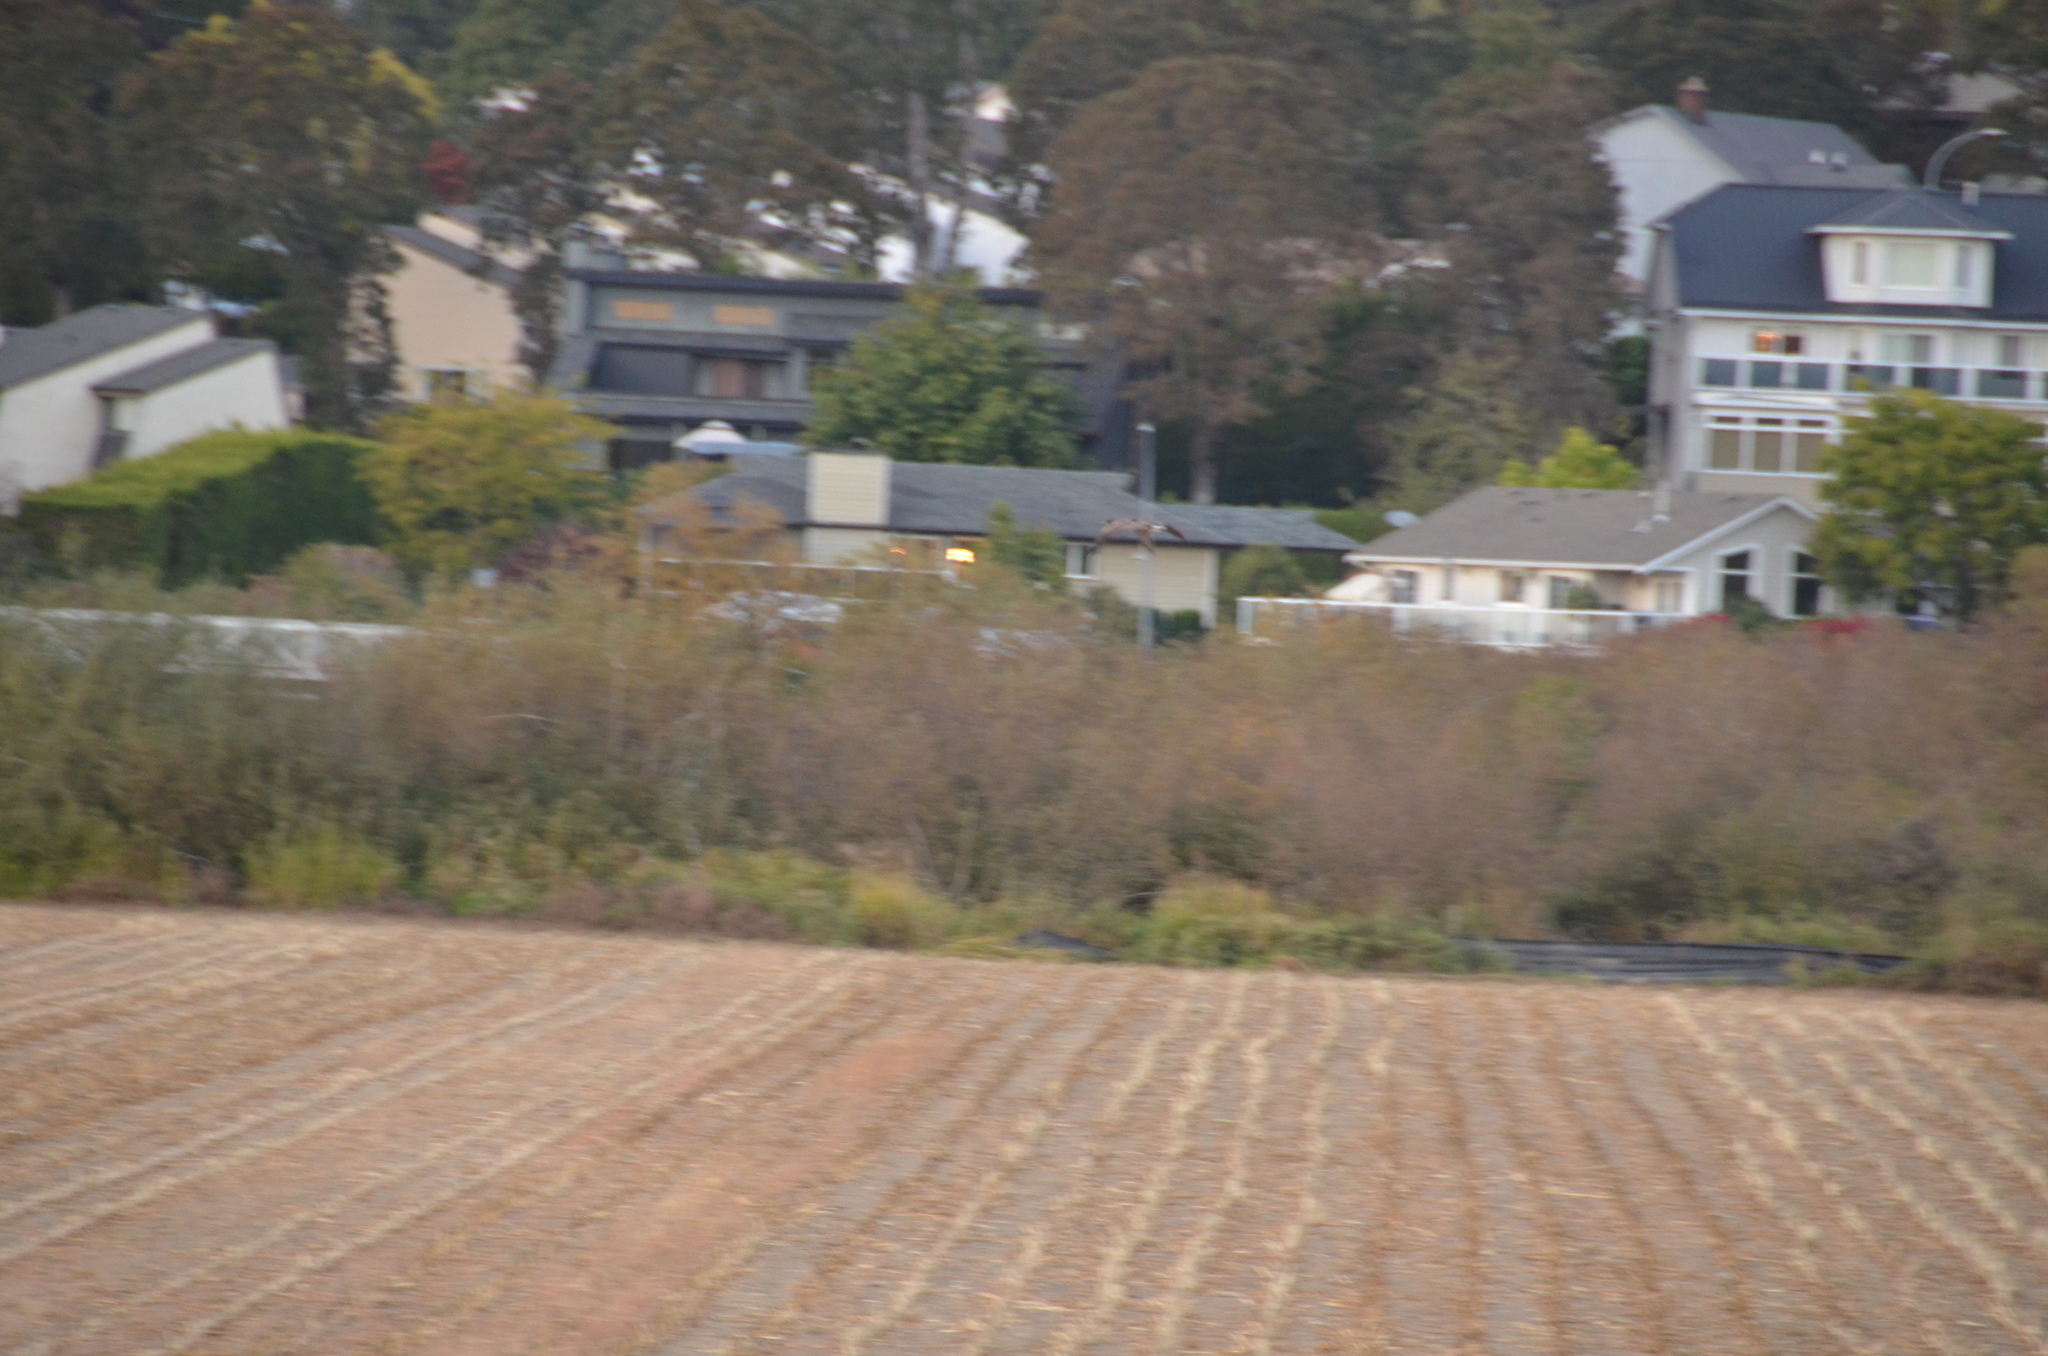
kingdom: Animalia
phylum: Chordata
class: Aves
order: Anseriformes
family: Anatidae
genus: Branta
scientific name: Branta canadensis
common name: Canada goose
